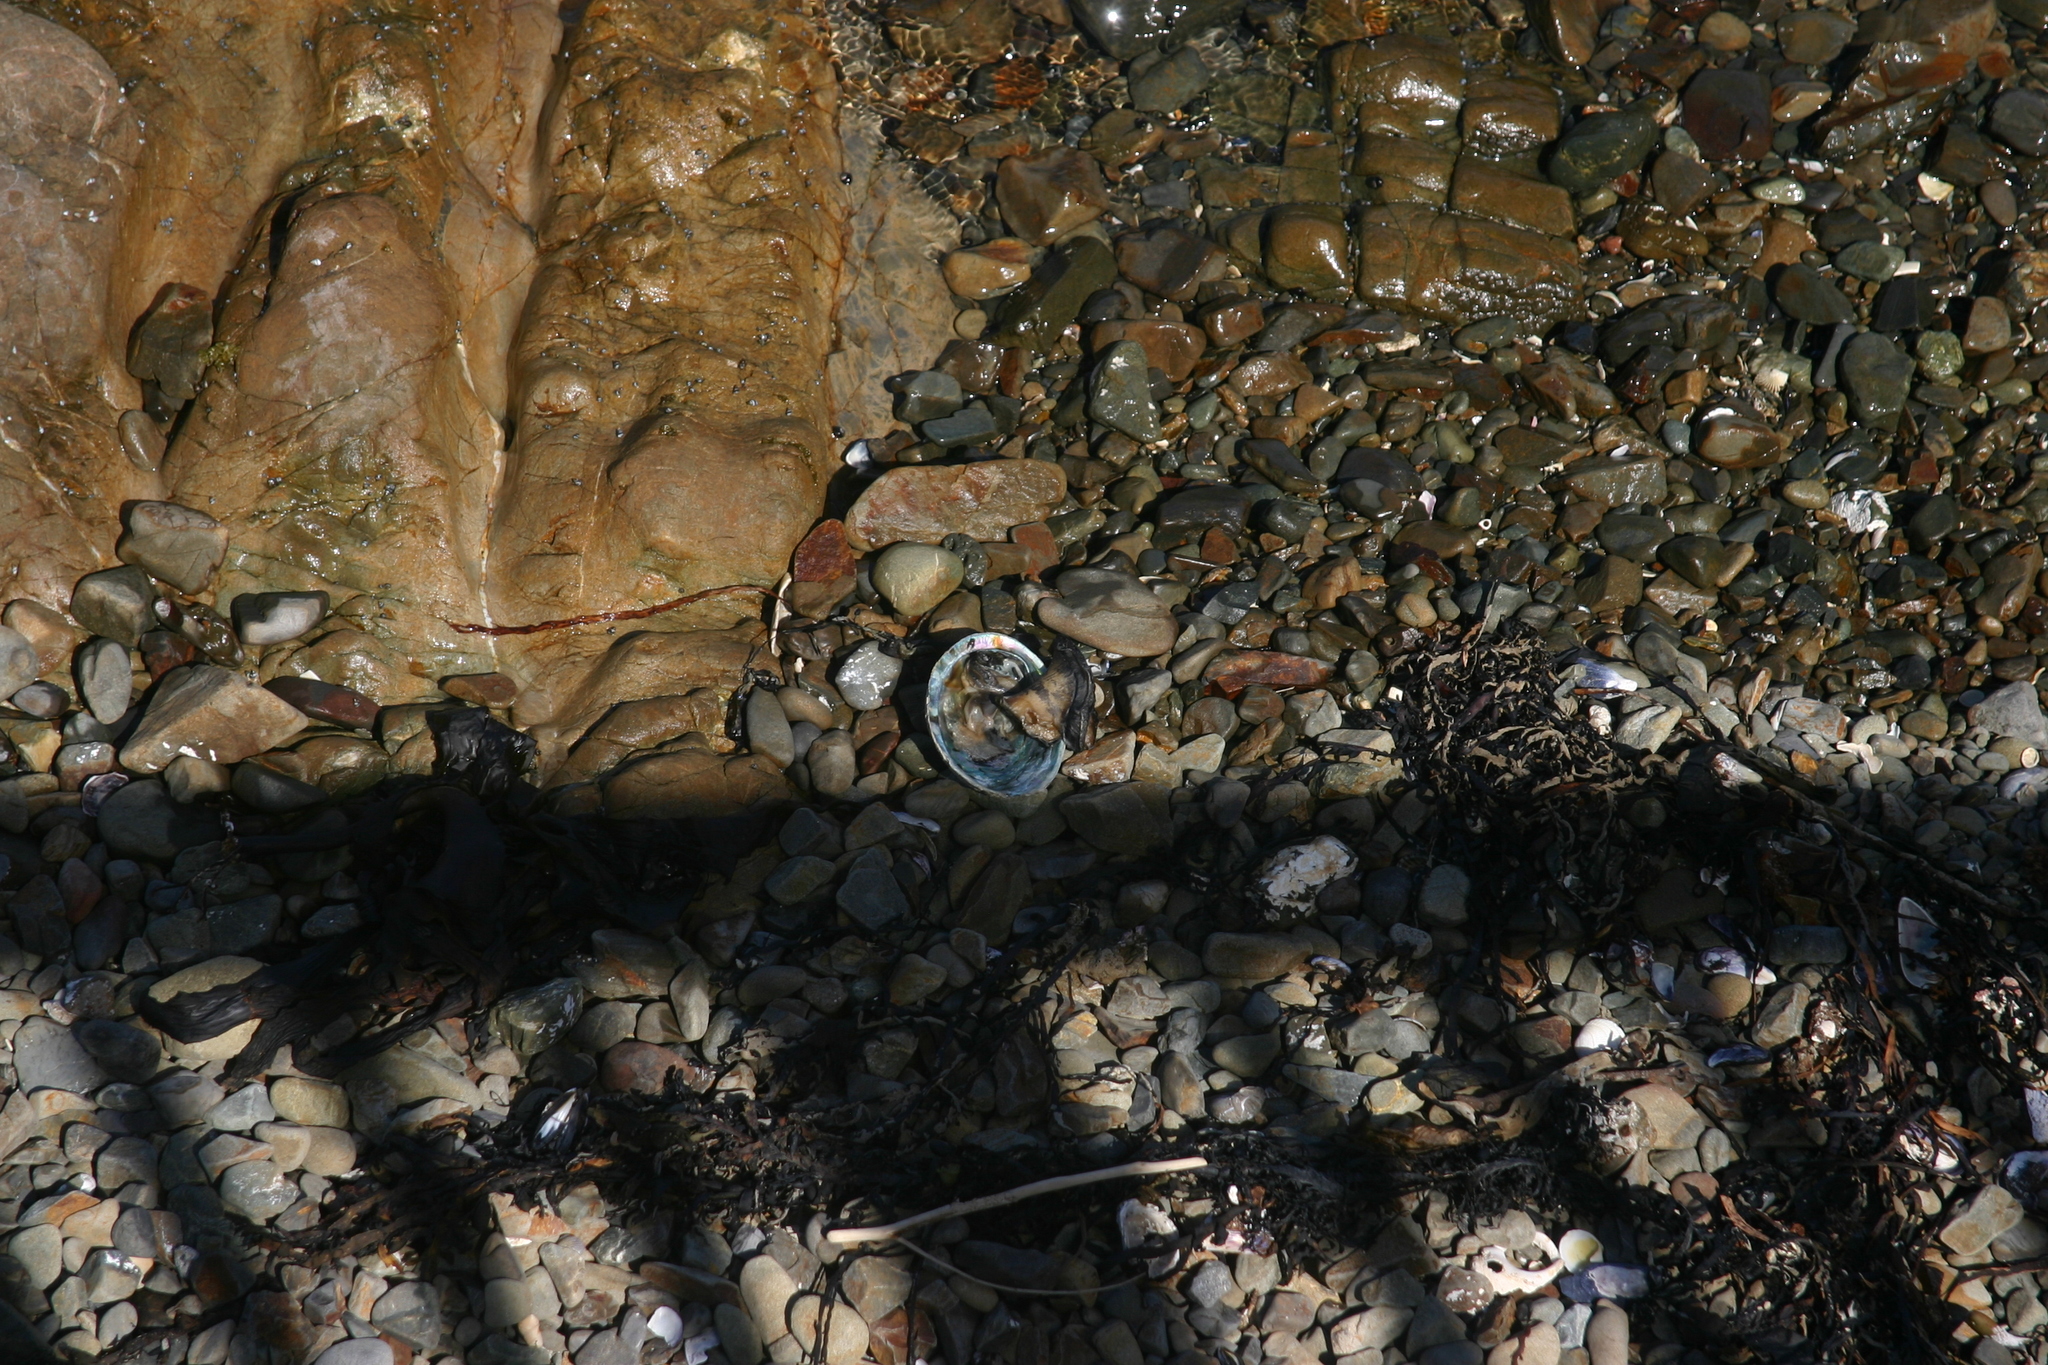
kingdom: Animalia
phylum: Mollusca
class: Gastropoda
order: Lepetellida
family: Haliotidae
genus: Haliotis
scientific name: Haliotis iris
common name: Abalone
